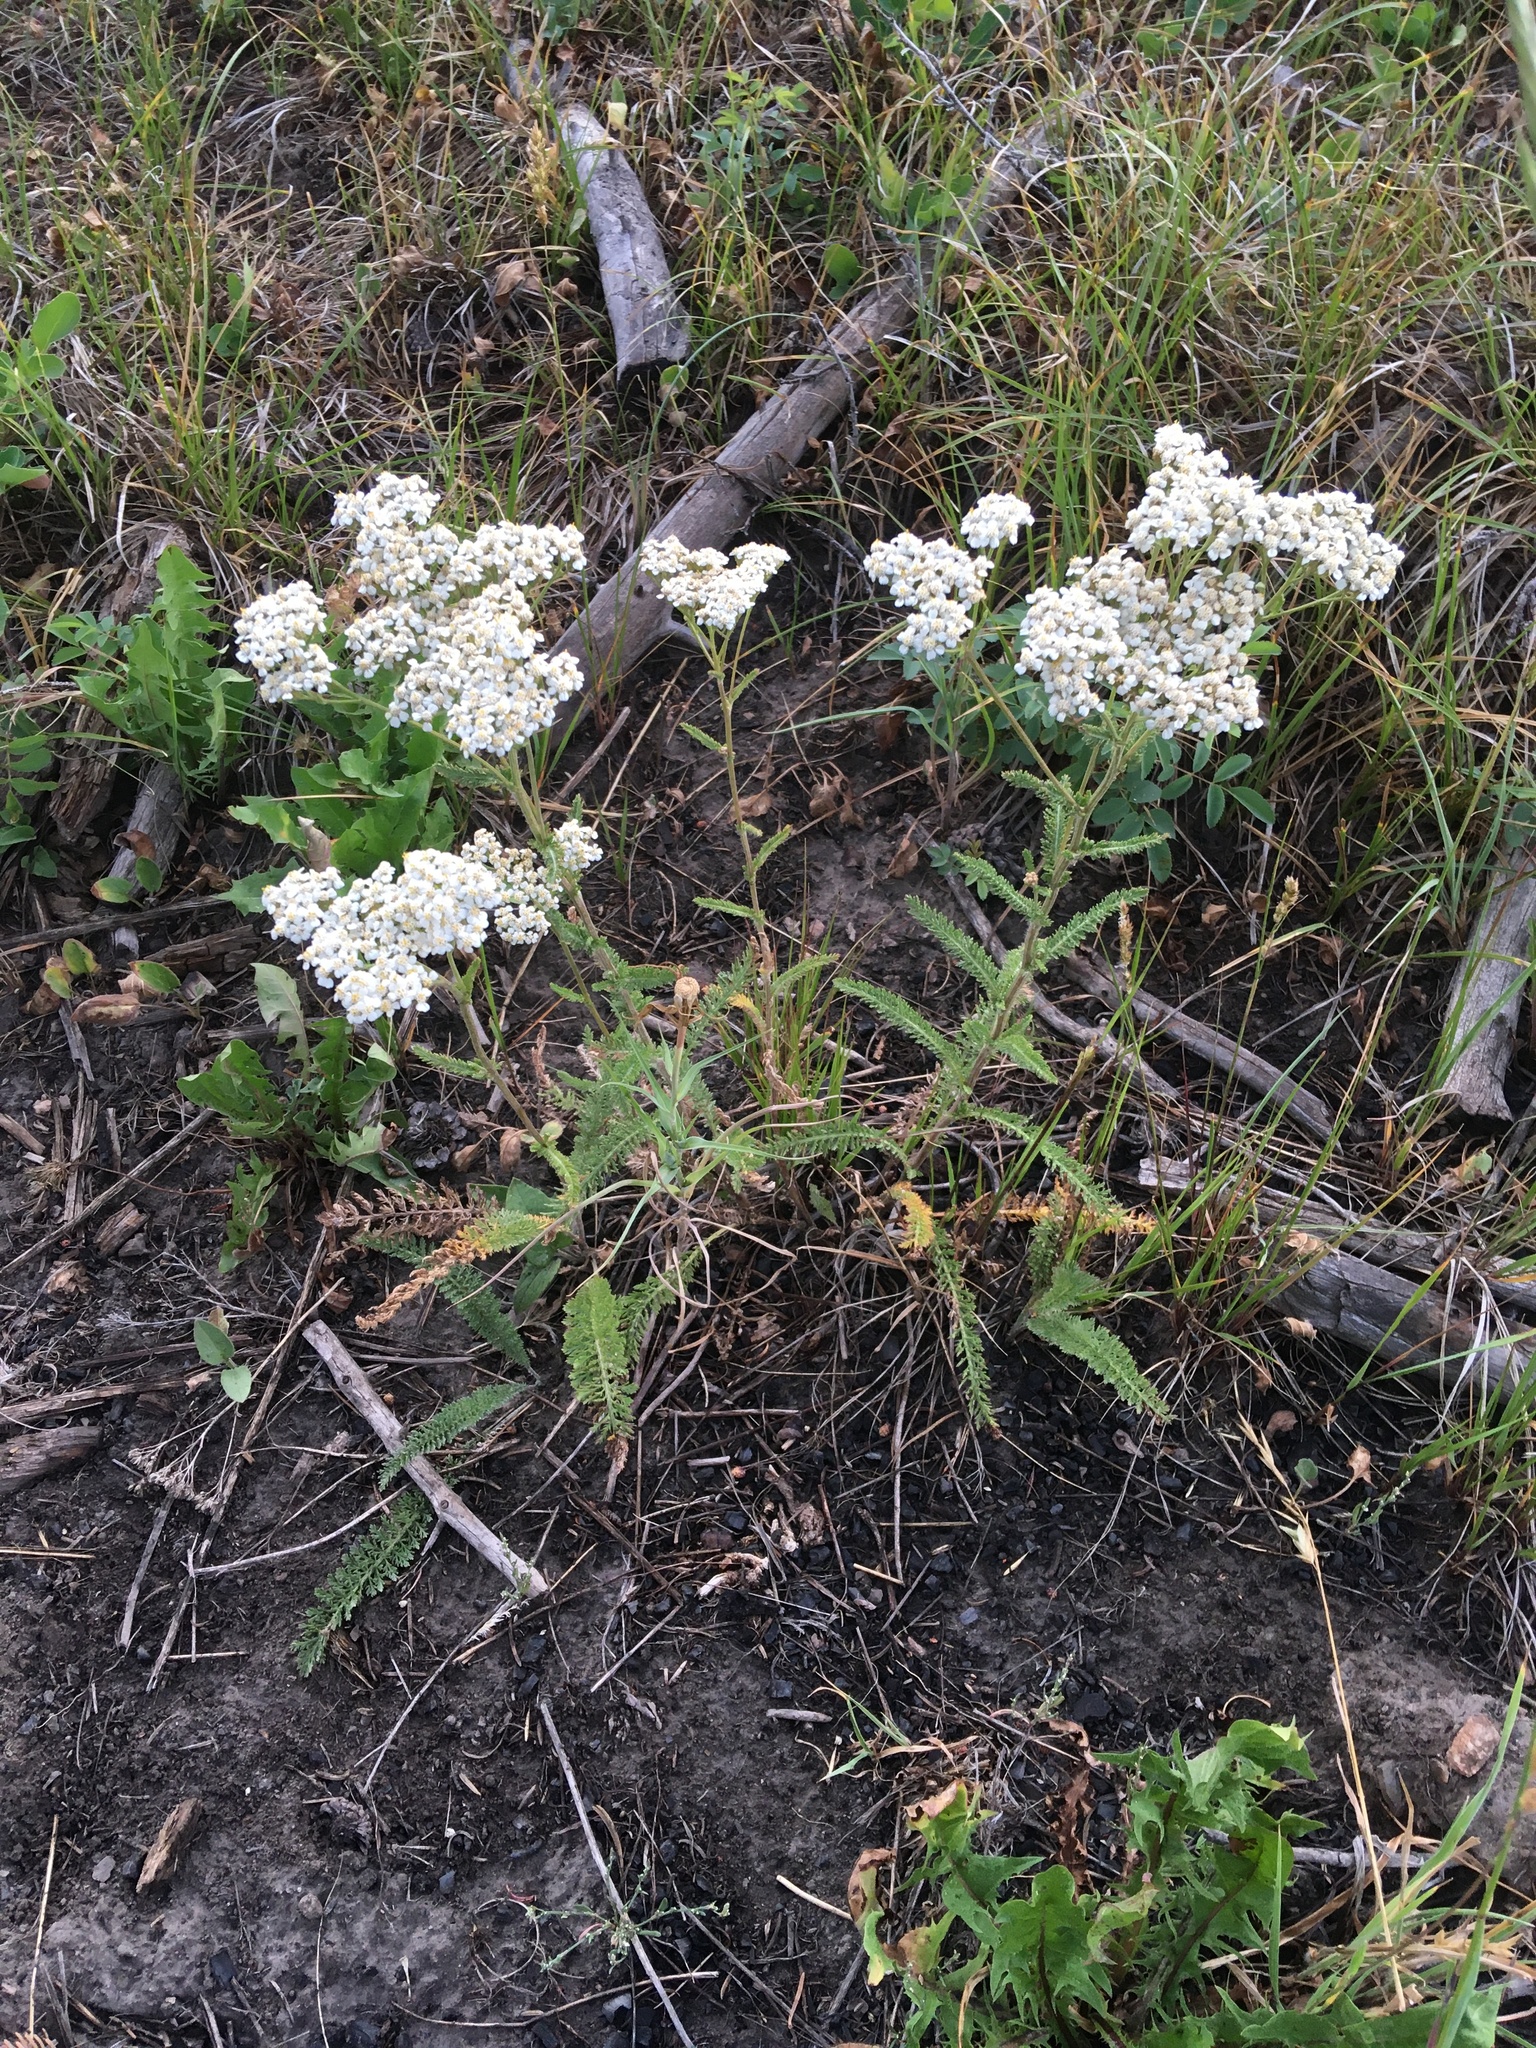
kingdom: Plantae
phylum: Tracheophyta
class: Magnoliopsida
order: Asterales
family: Asteraceae
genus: Achillea
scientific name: Achillea millefolium
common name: Yarrow
